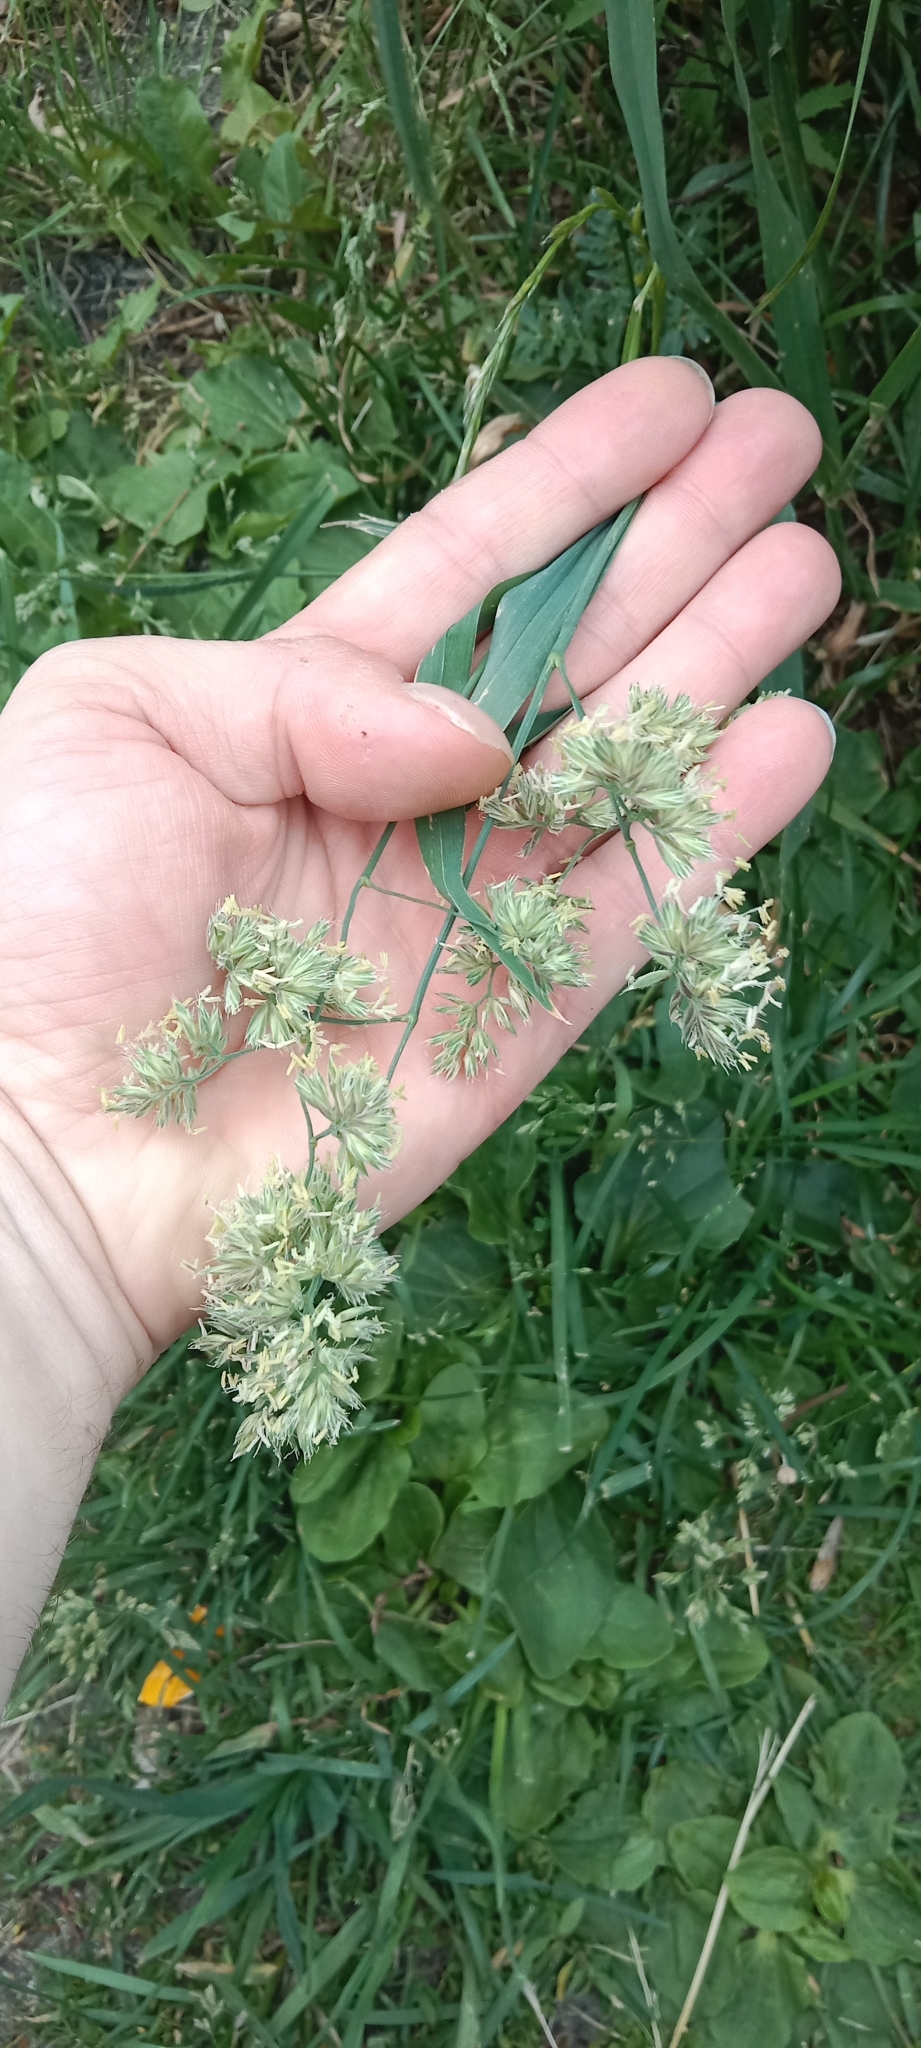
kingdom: Plantae
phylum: Tracheophyta
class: Liliopsida
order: Poales
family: Poaceae
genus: Dactylis
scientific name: Dactylis glomerata
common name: Orchardgrass
